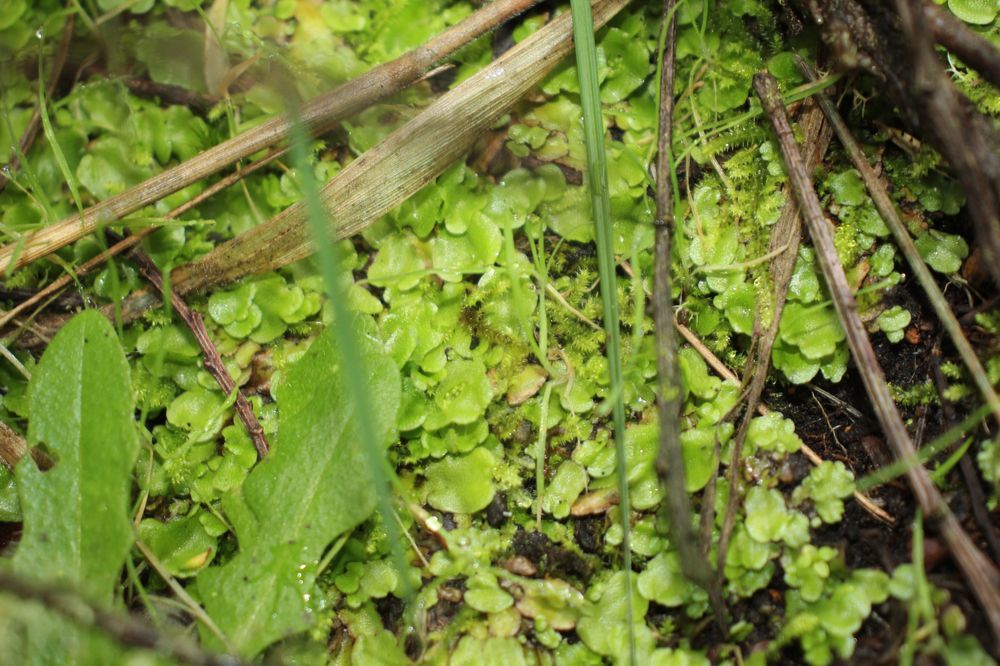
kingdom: Plantae
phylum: Marchantiophyta
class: Marchantiopsida
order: Lunulariales
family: Lunulariaceae
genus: Lunularia
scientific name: Lunularia cruciata
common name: Crescent-cup liverwort
